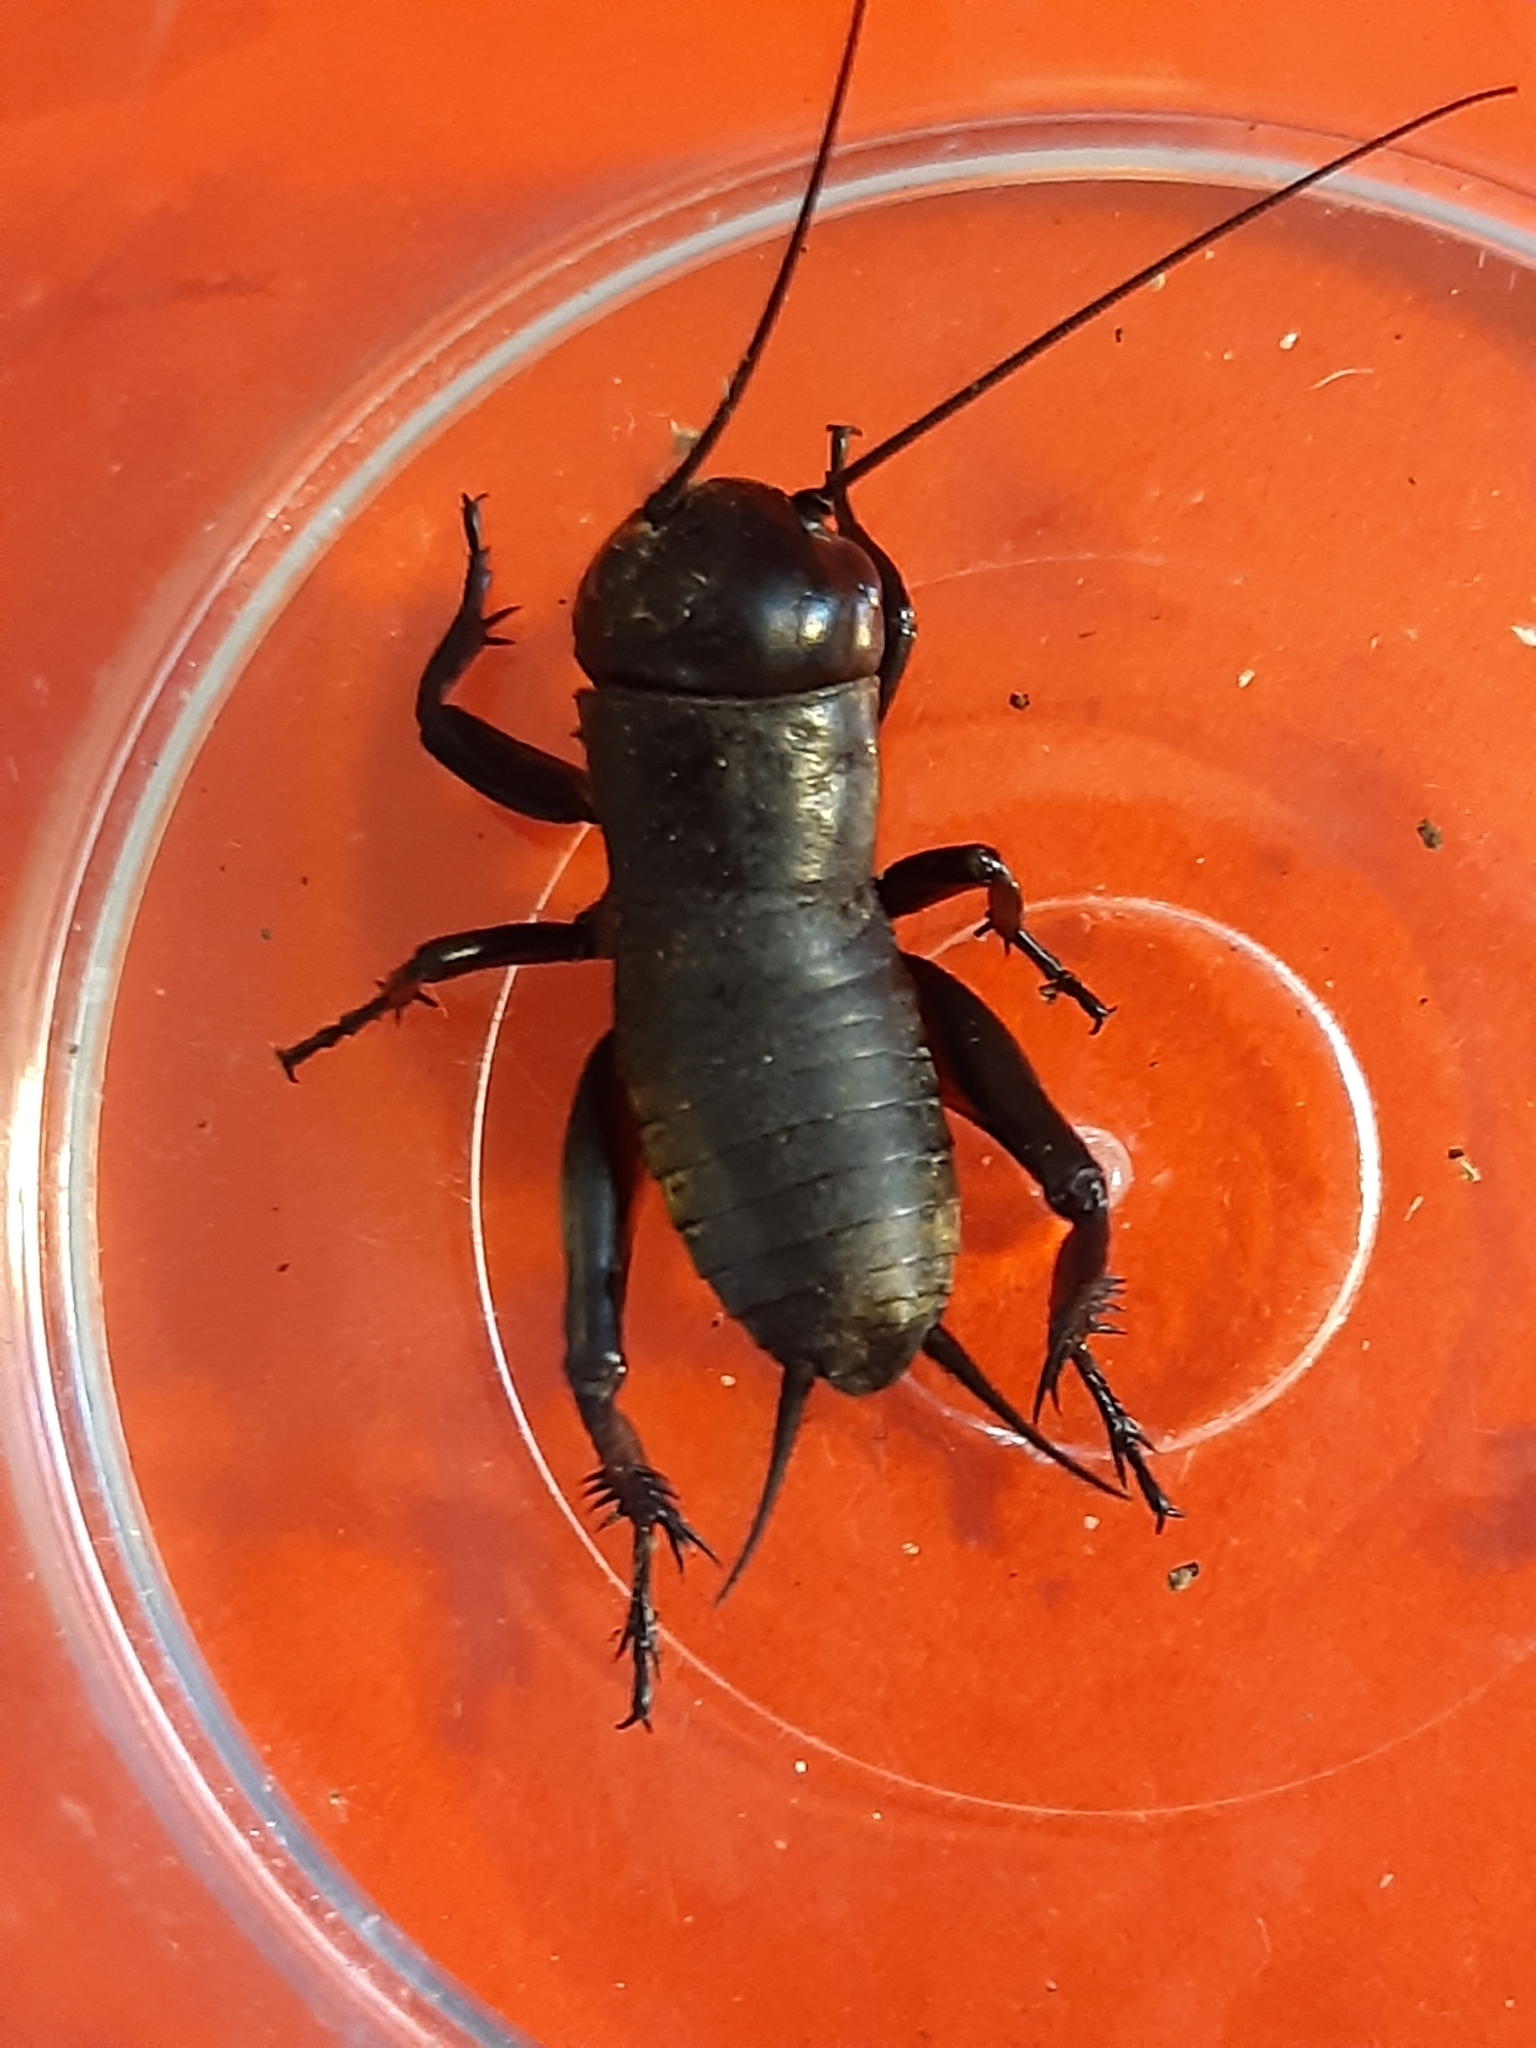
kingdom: Animalia
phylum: Arthropoda
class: Insecta
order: Orthoptera
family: Gryllidae
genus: Gryllus
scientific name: Gryllus campestris
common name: Field cricket
